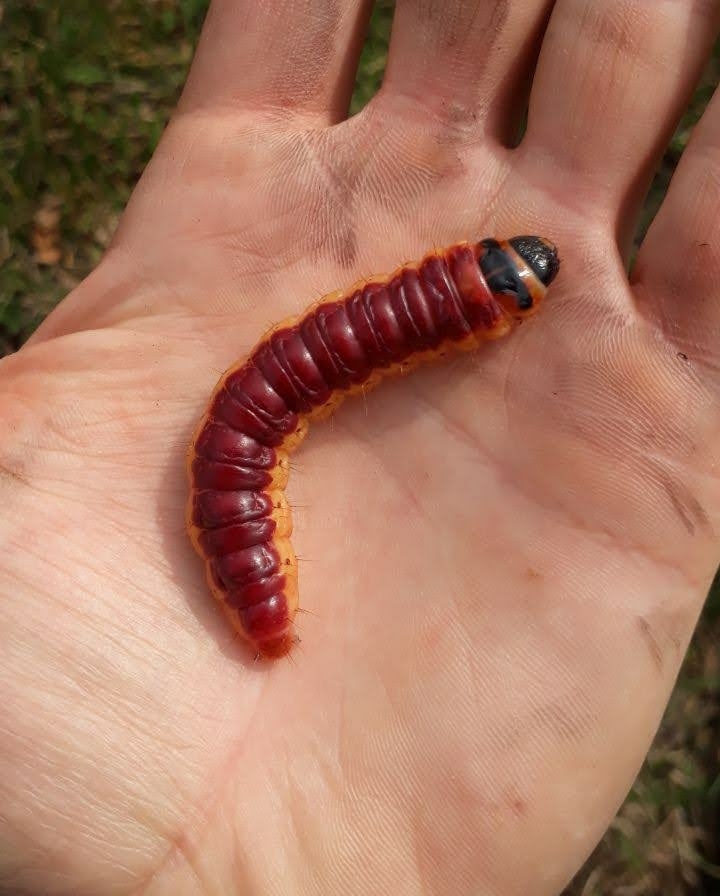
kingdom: Animalia
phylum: Arthropoda
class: Insecta
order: Lepidoptera
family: Cossidae
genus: Cossus
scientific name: Cossus cossus
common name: Goat moth
